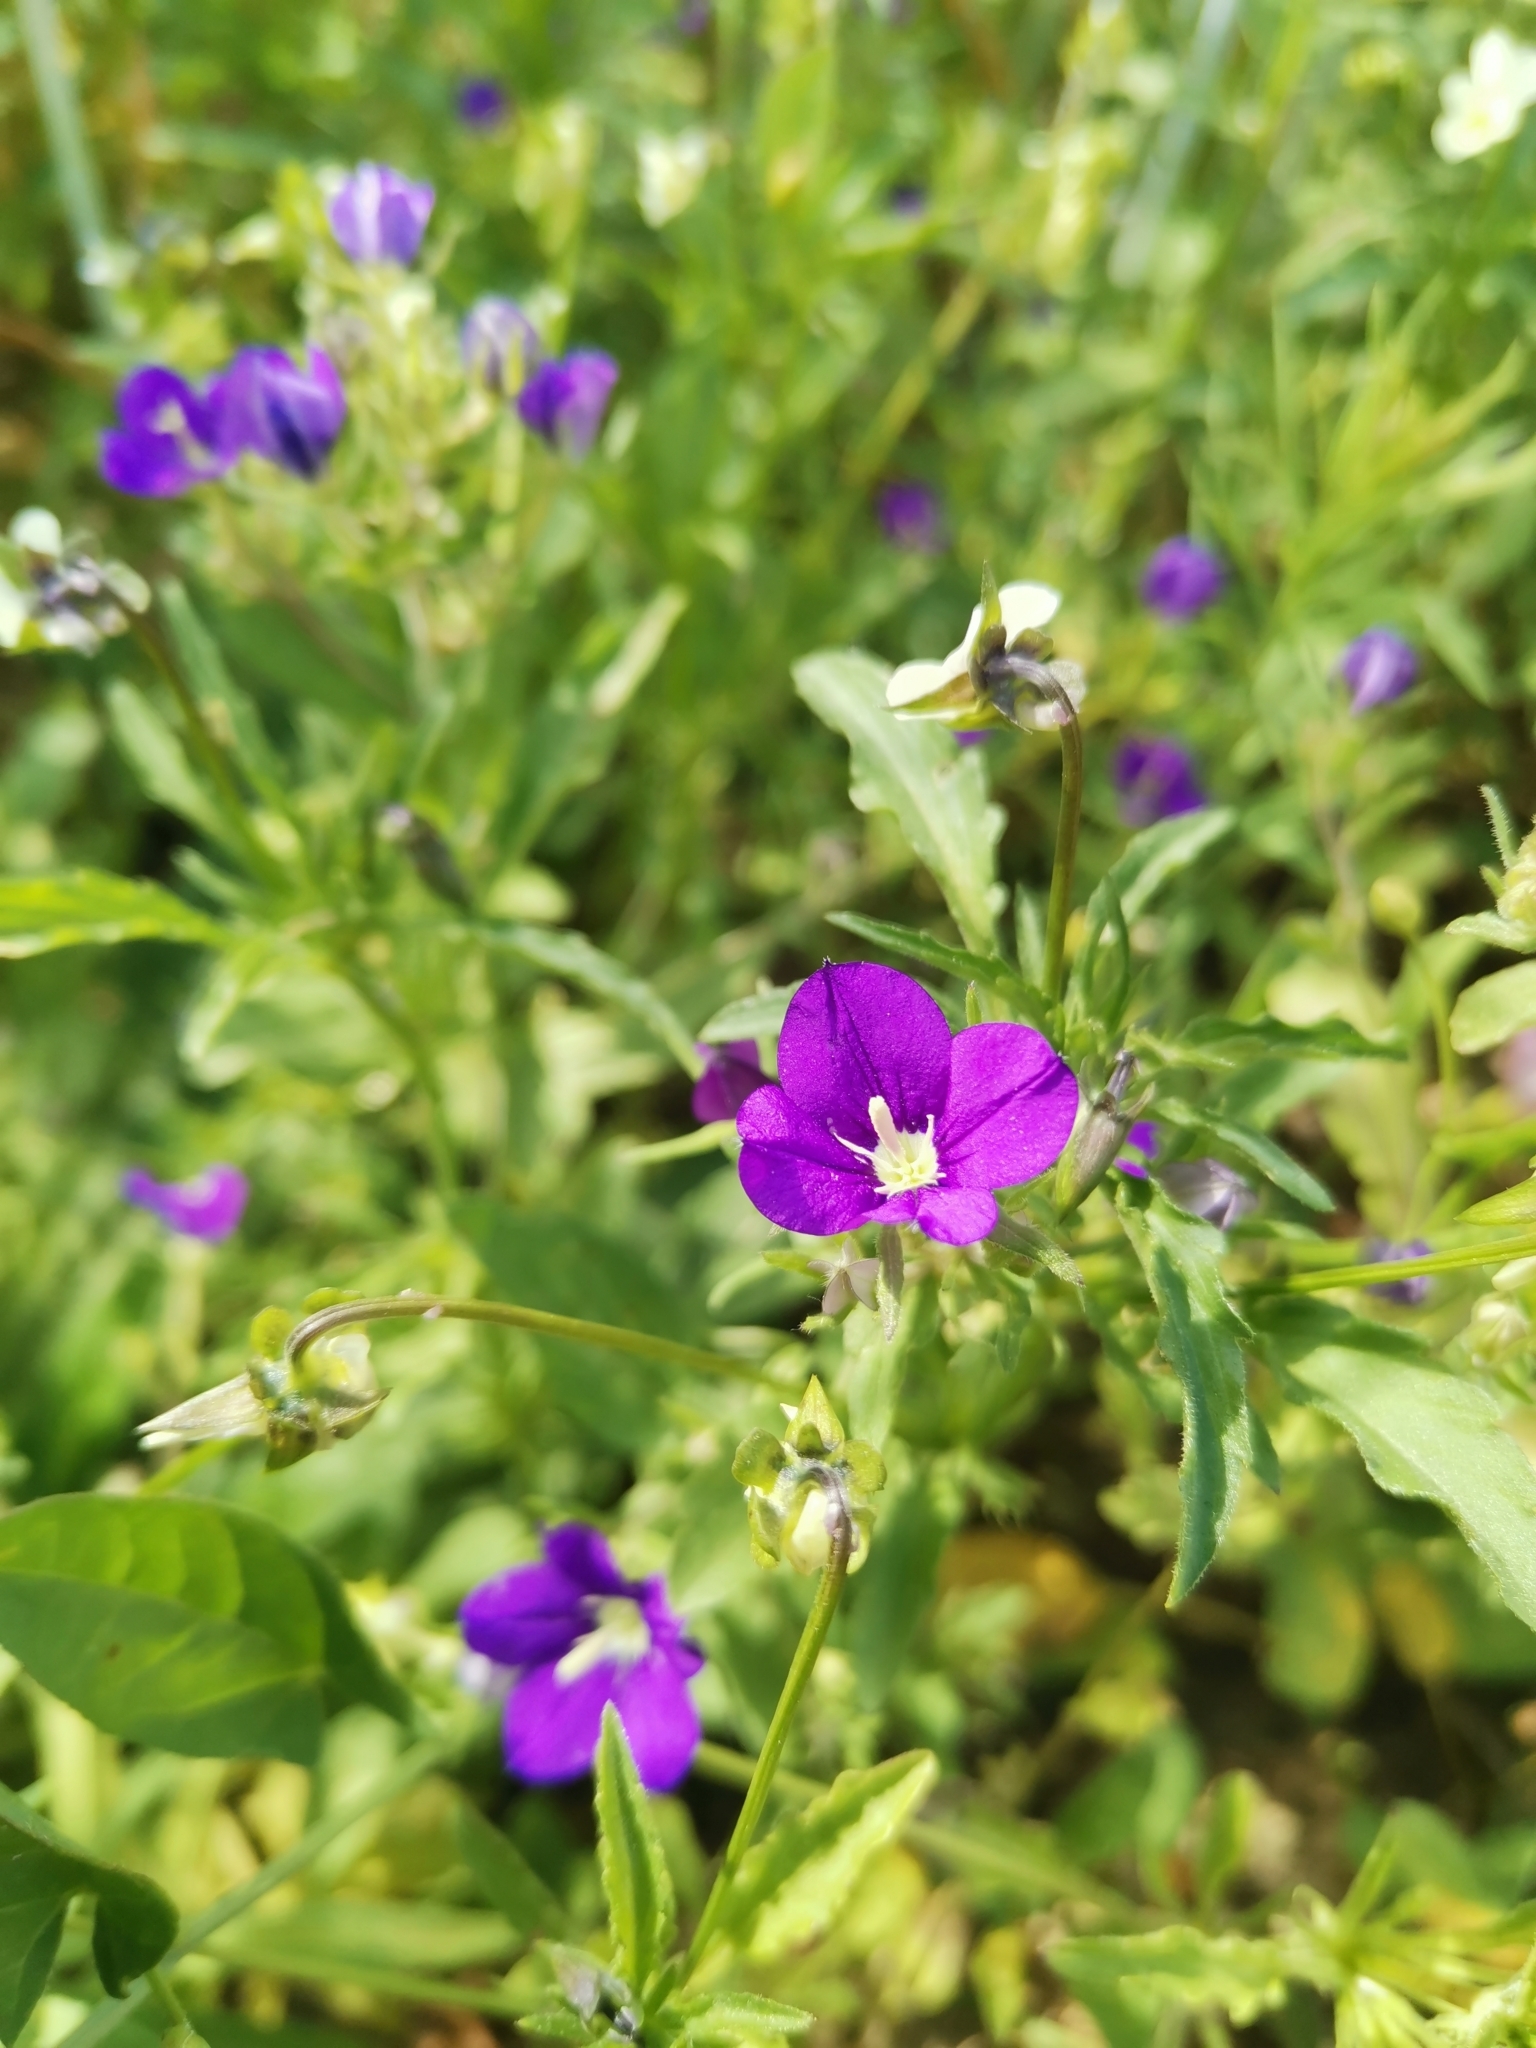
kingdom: Plantae
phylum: Tracheophyta
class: Magnoliopsida
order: Asterales
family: Campanulaceae
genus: Legousia
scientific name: Legousia speculum-veneris
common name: Large venus's-looking-glass
